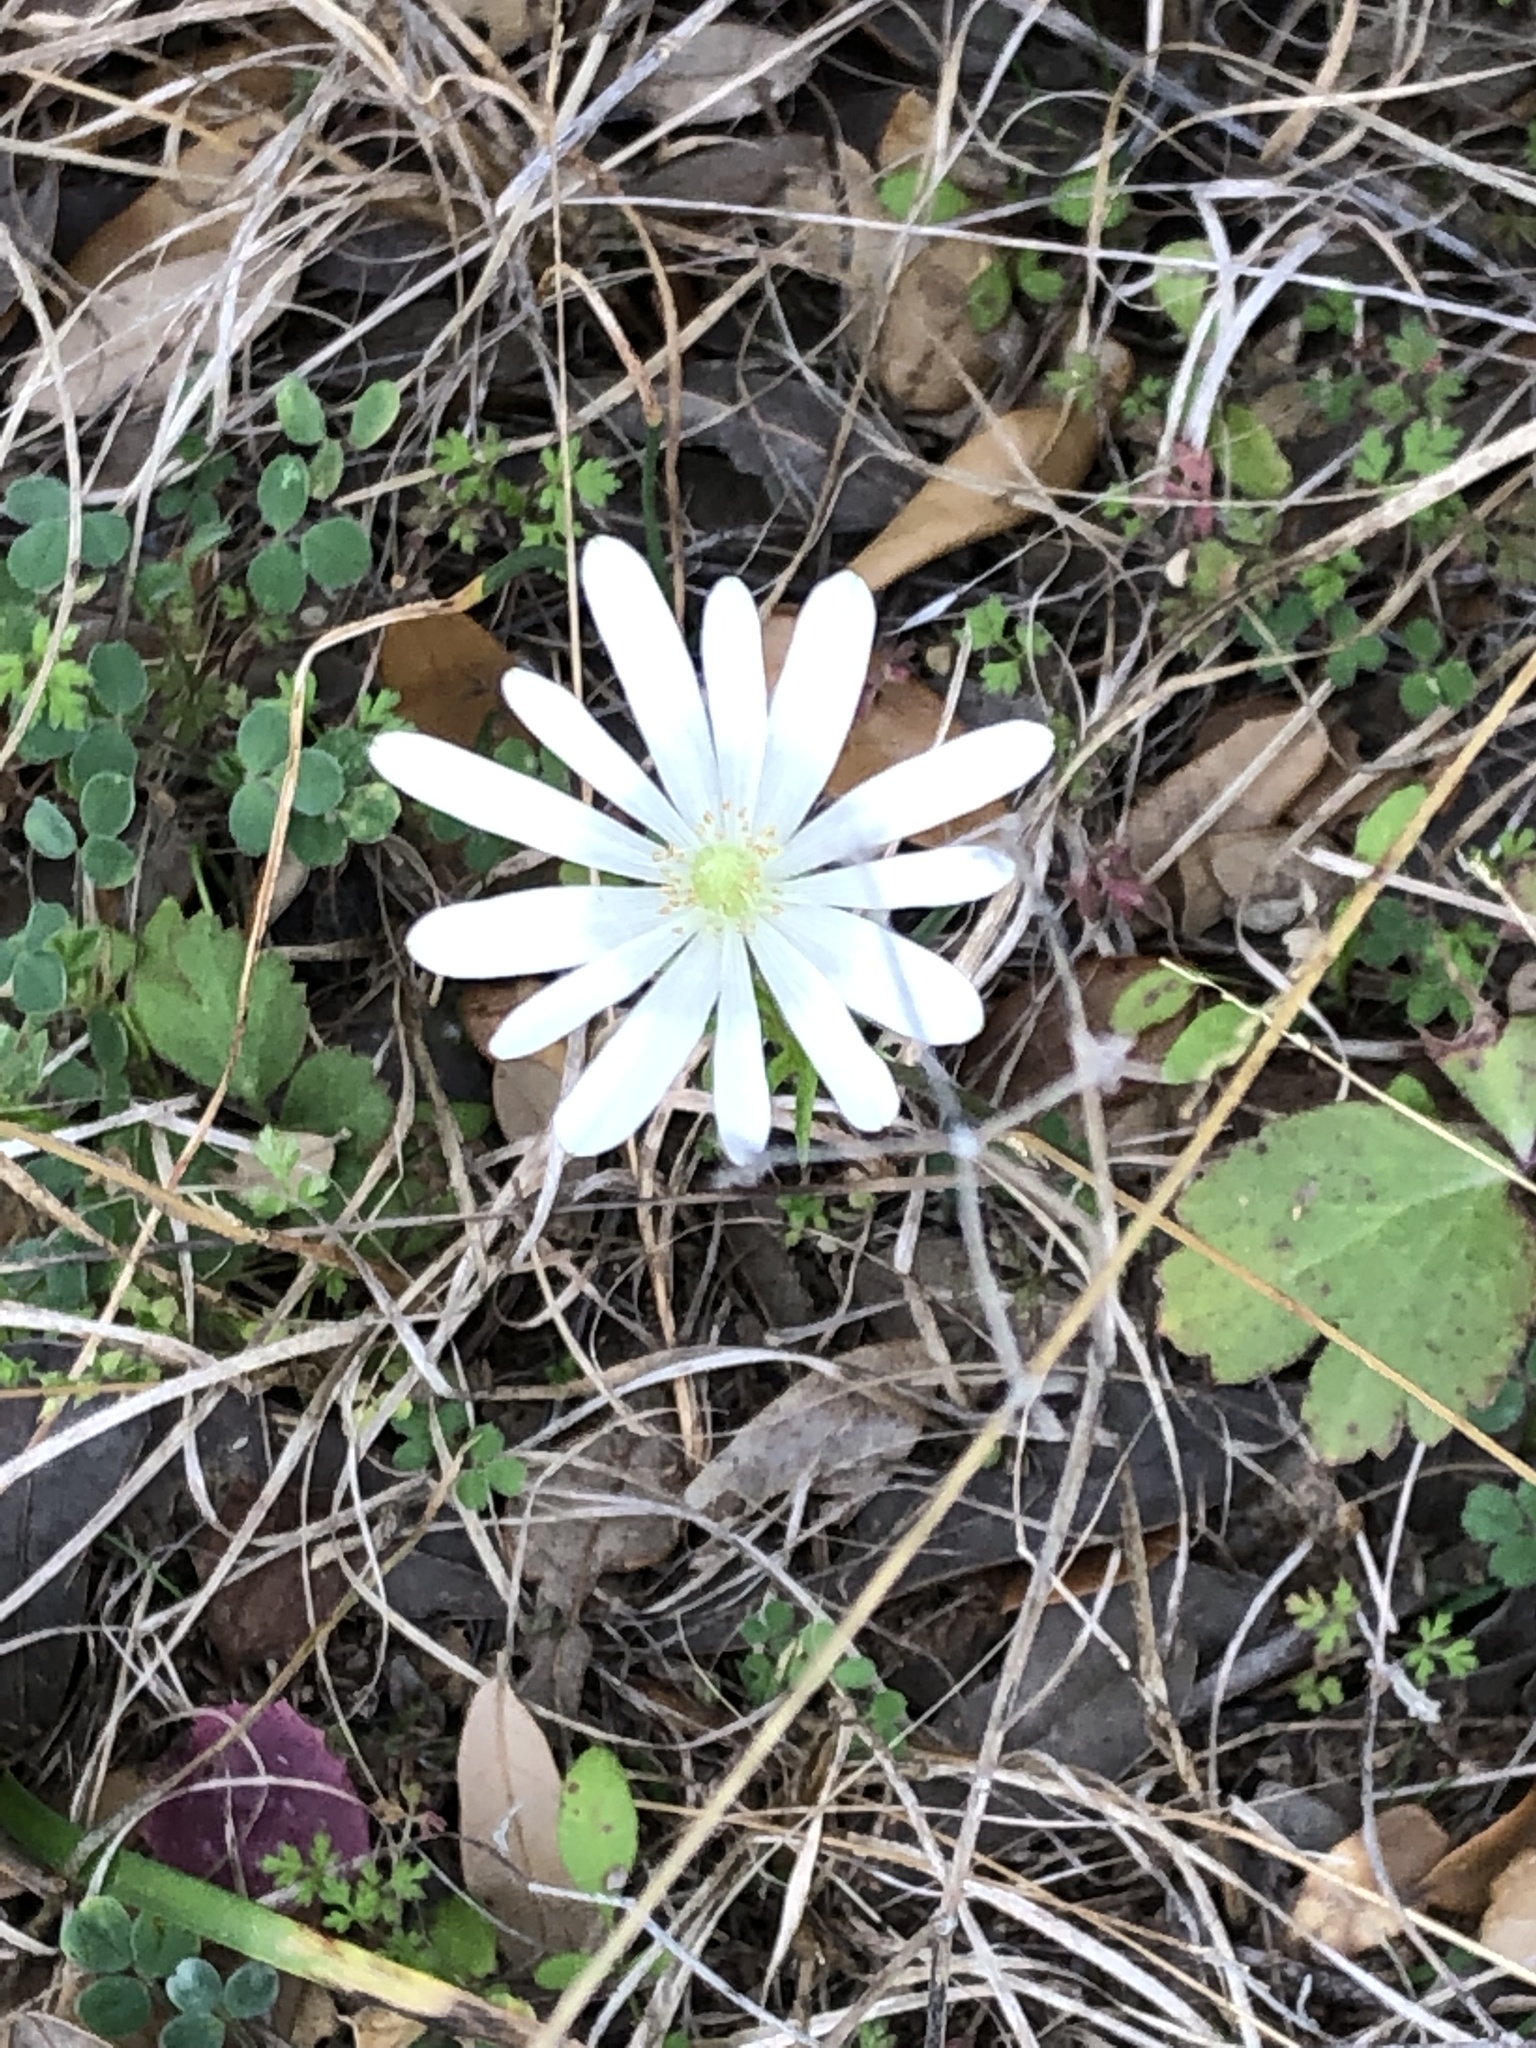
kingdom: Plantae
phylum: Tracheophyta
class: Magnoliopsida
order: Ranunculales
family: Ranunculaceae
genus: Anemone
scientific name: Anemone berlandieri
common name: Ten-petal anemone
